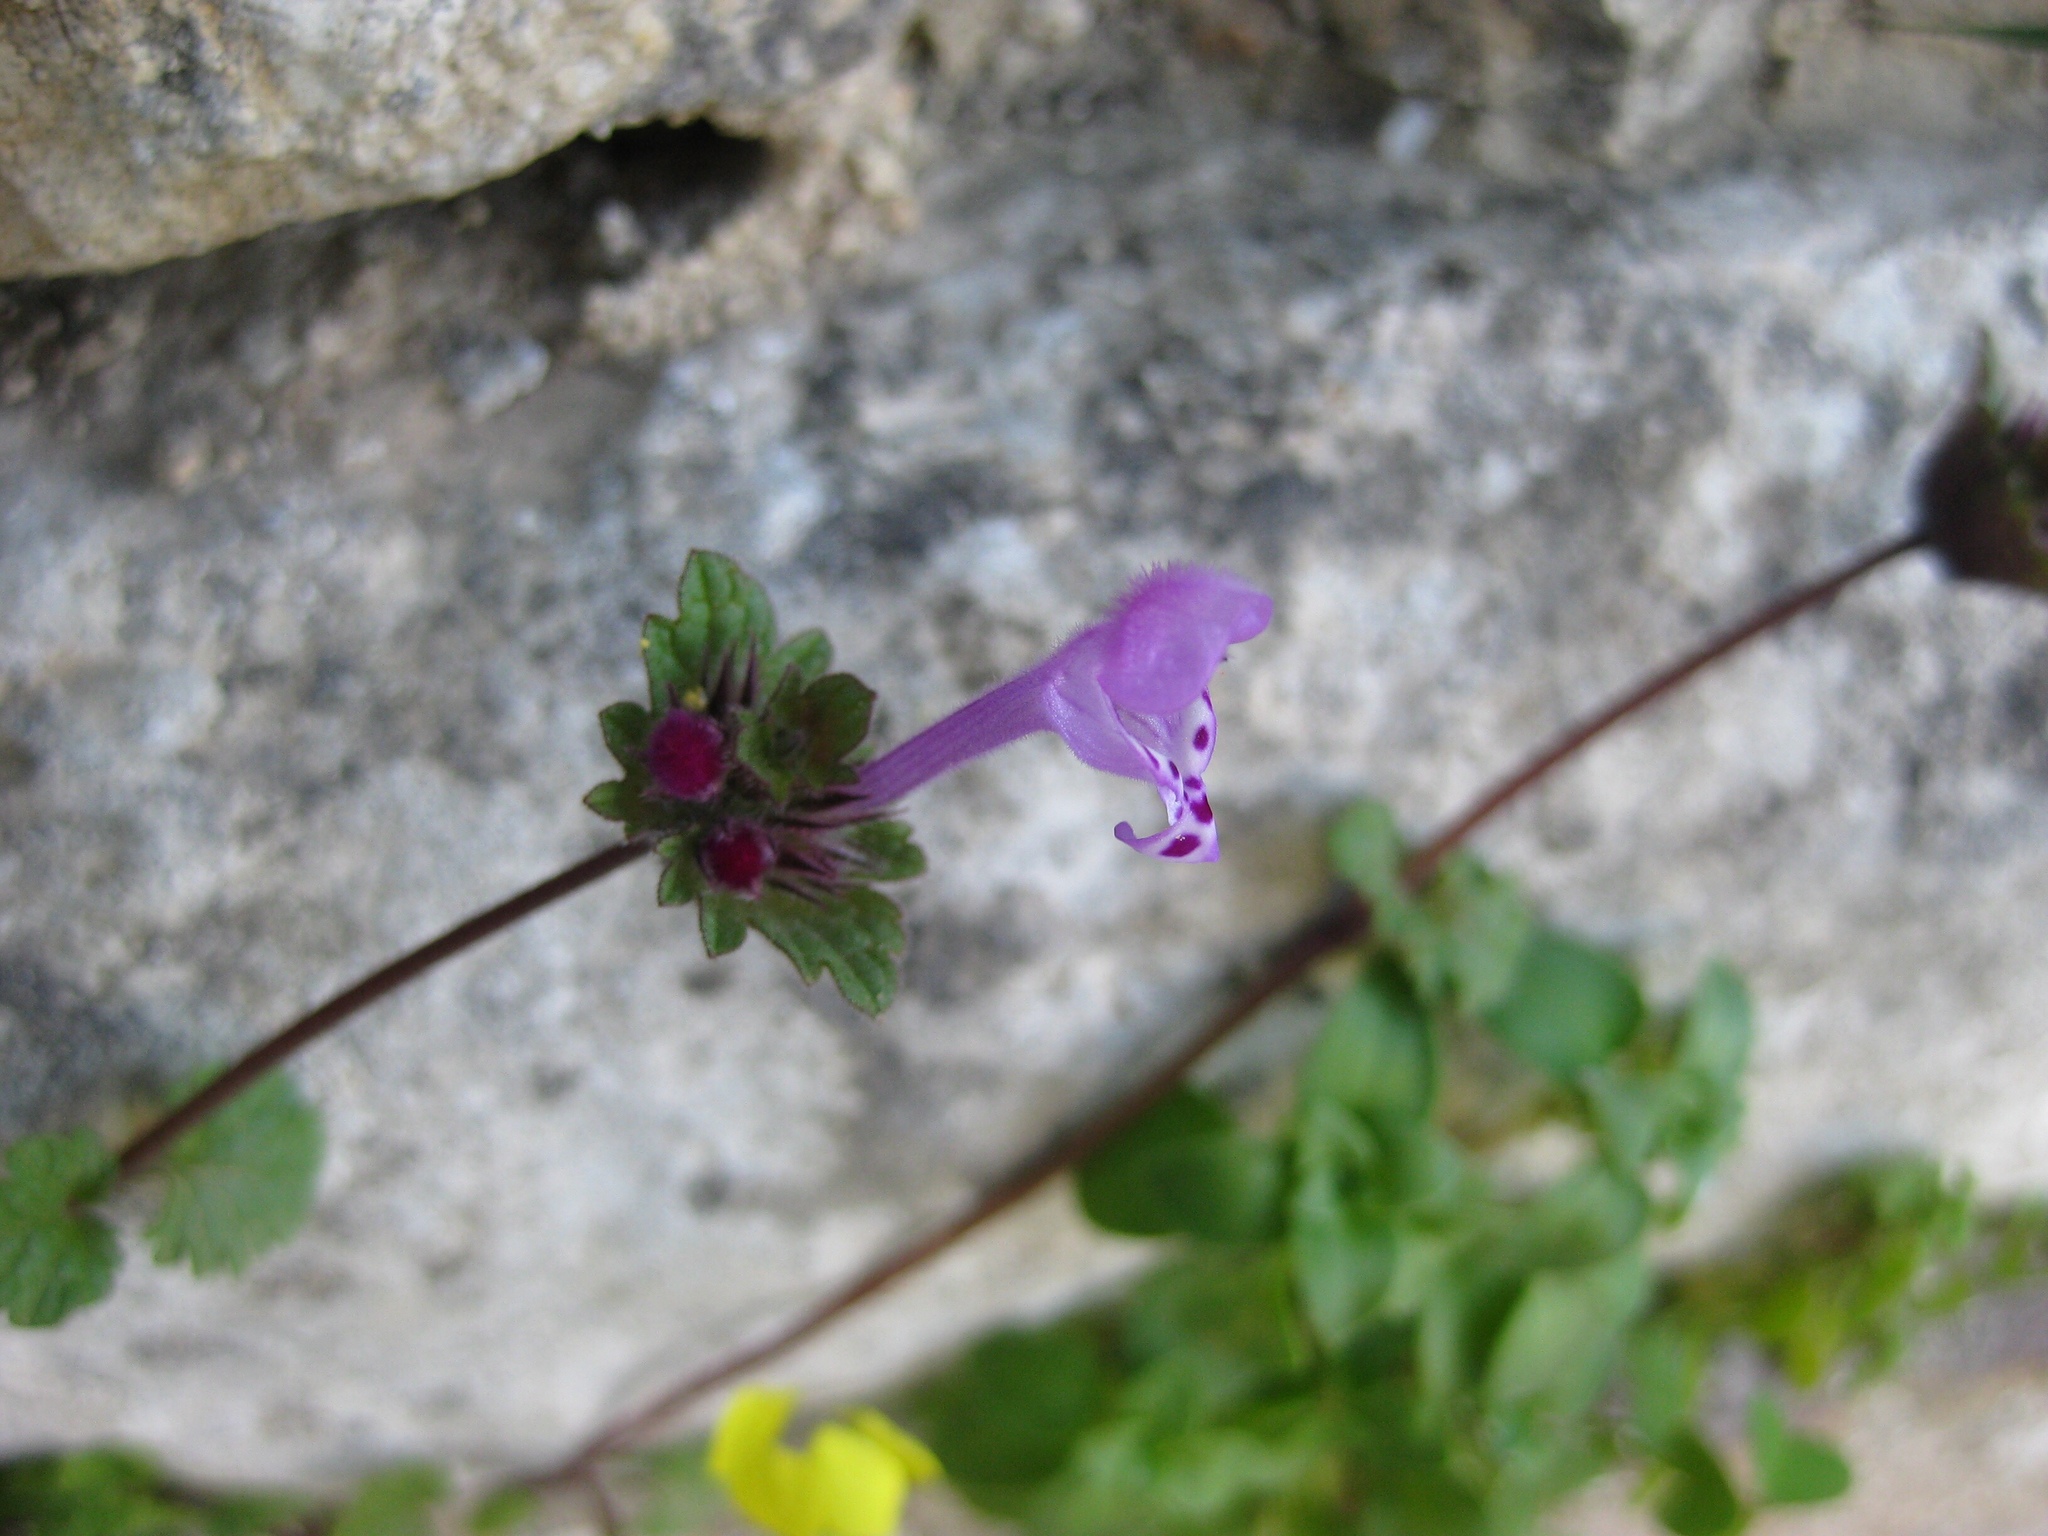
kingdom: Plantae
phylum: Tracheophyta
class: Magnoliopsida
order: Lamiales
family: Lamiaceae
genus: Lamium
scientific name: Lamium amplexicaule
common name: Henbit dead-nettle
